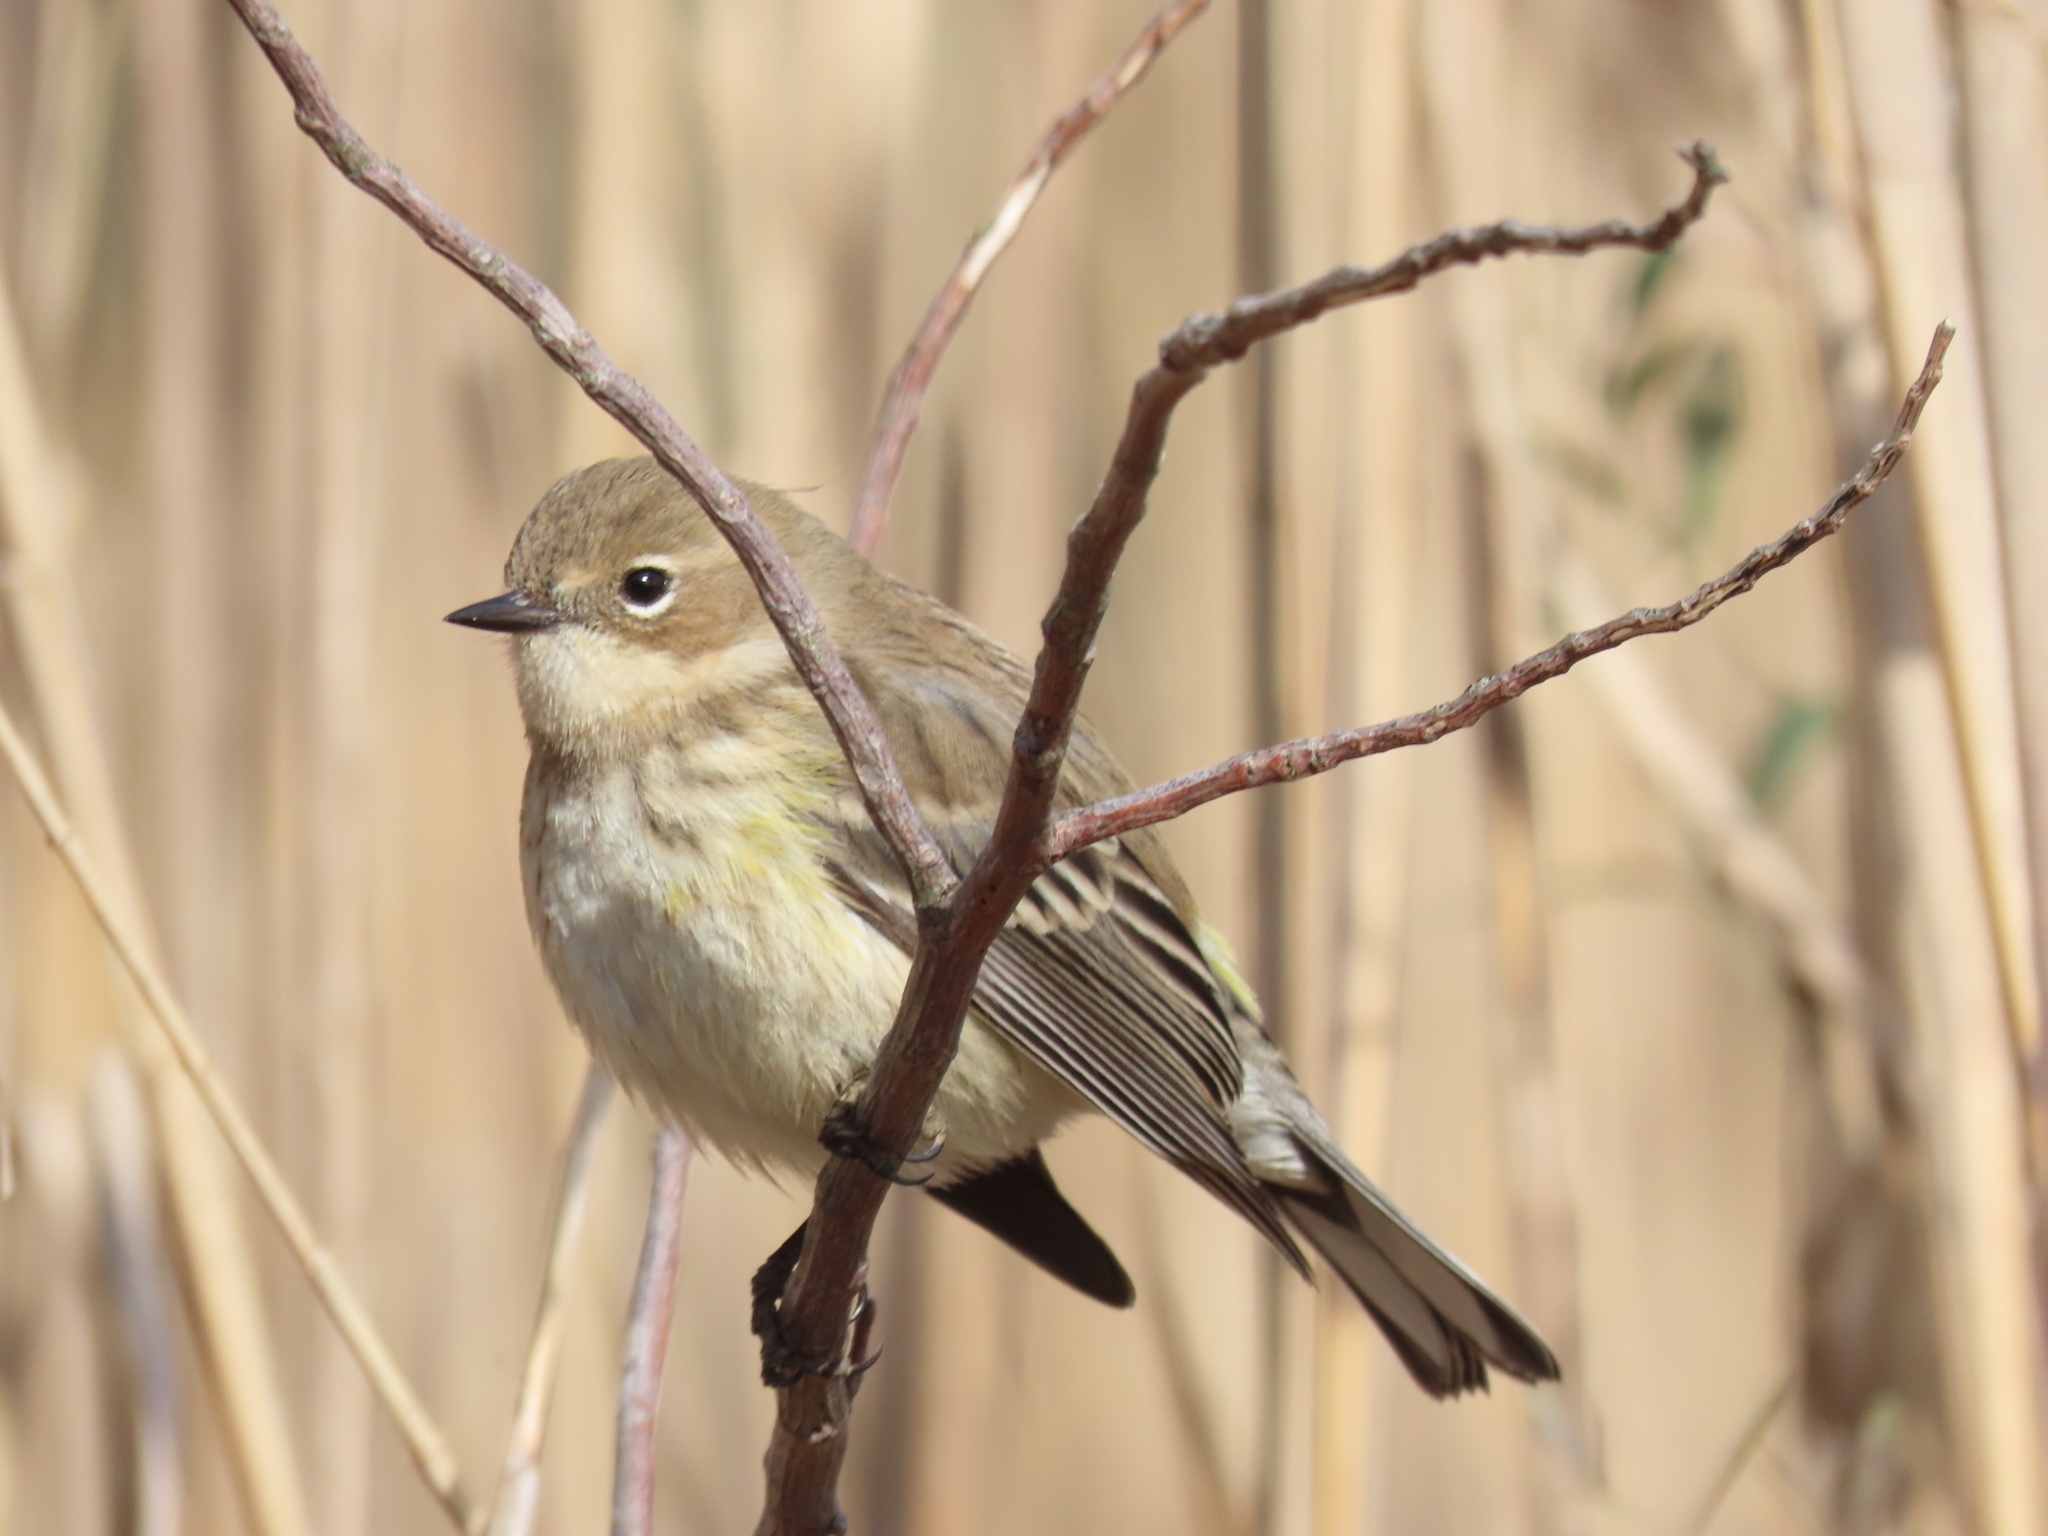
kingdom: Animalia
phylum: Chordata
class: Aves
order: Passeriformes
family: Parulidae
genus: Setophaga
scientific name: Setophaga coronata
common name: Myrtle warbler
